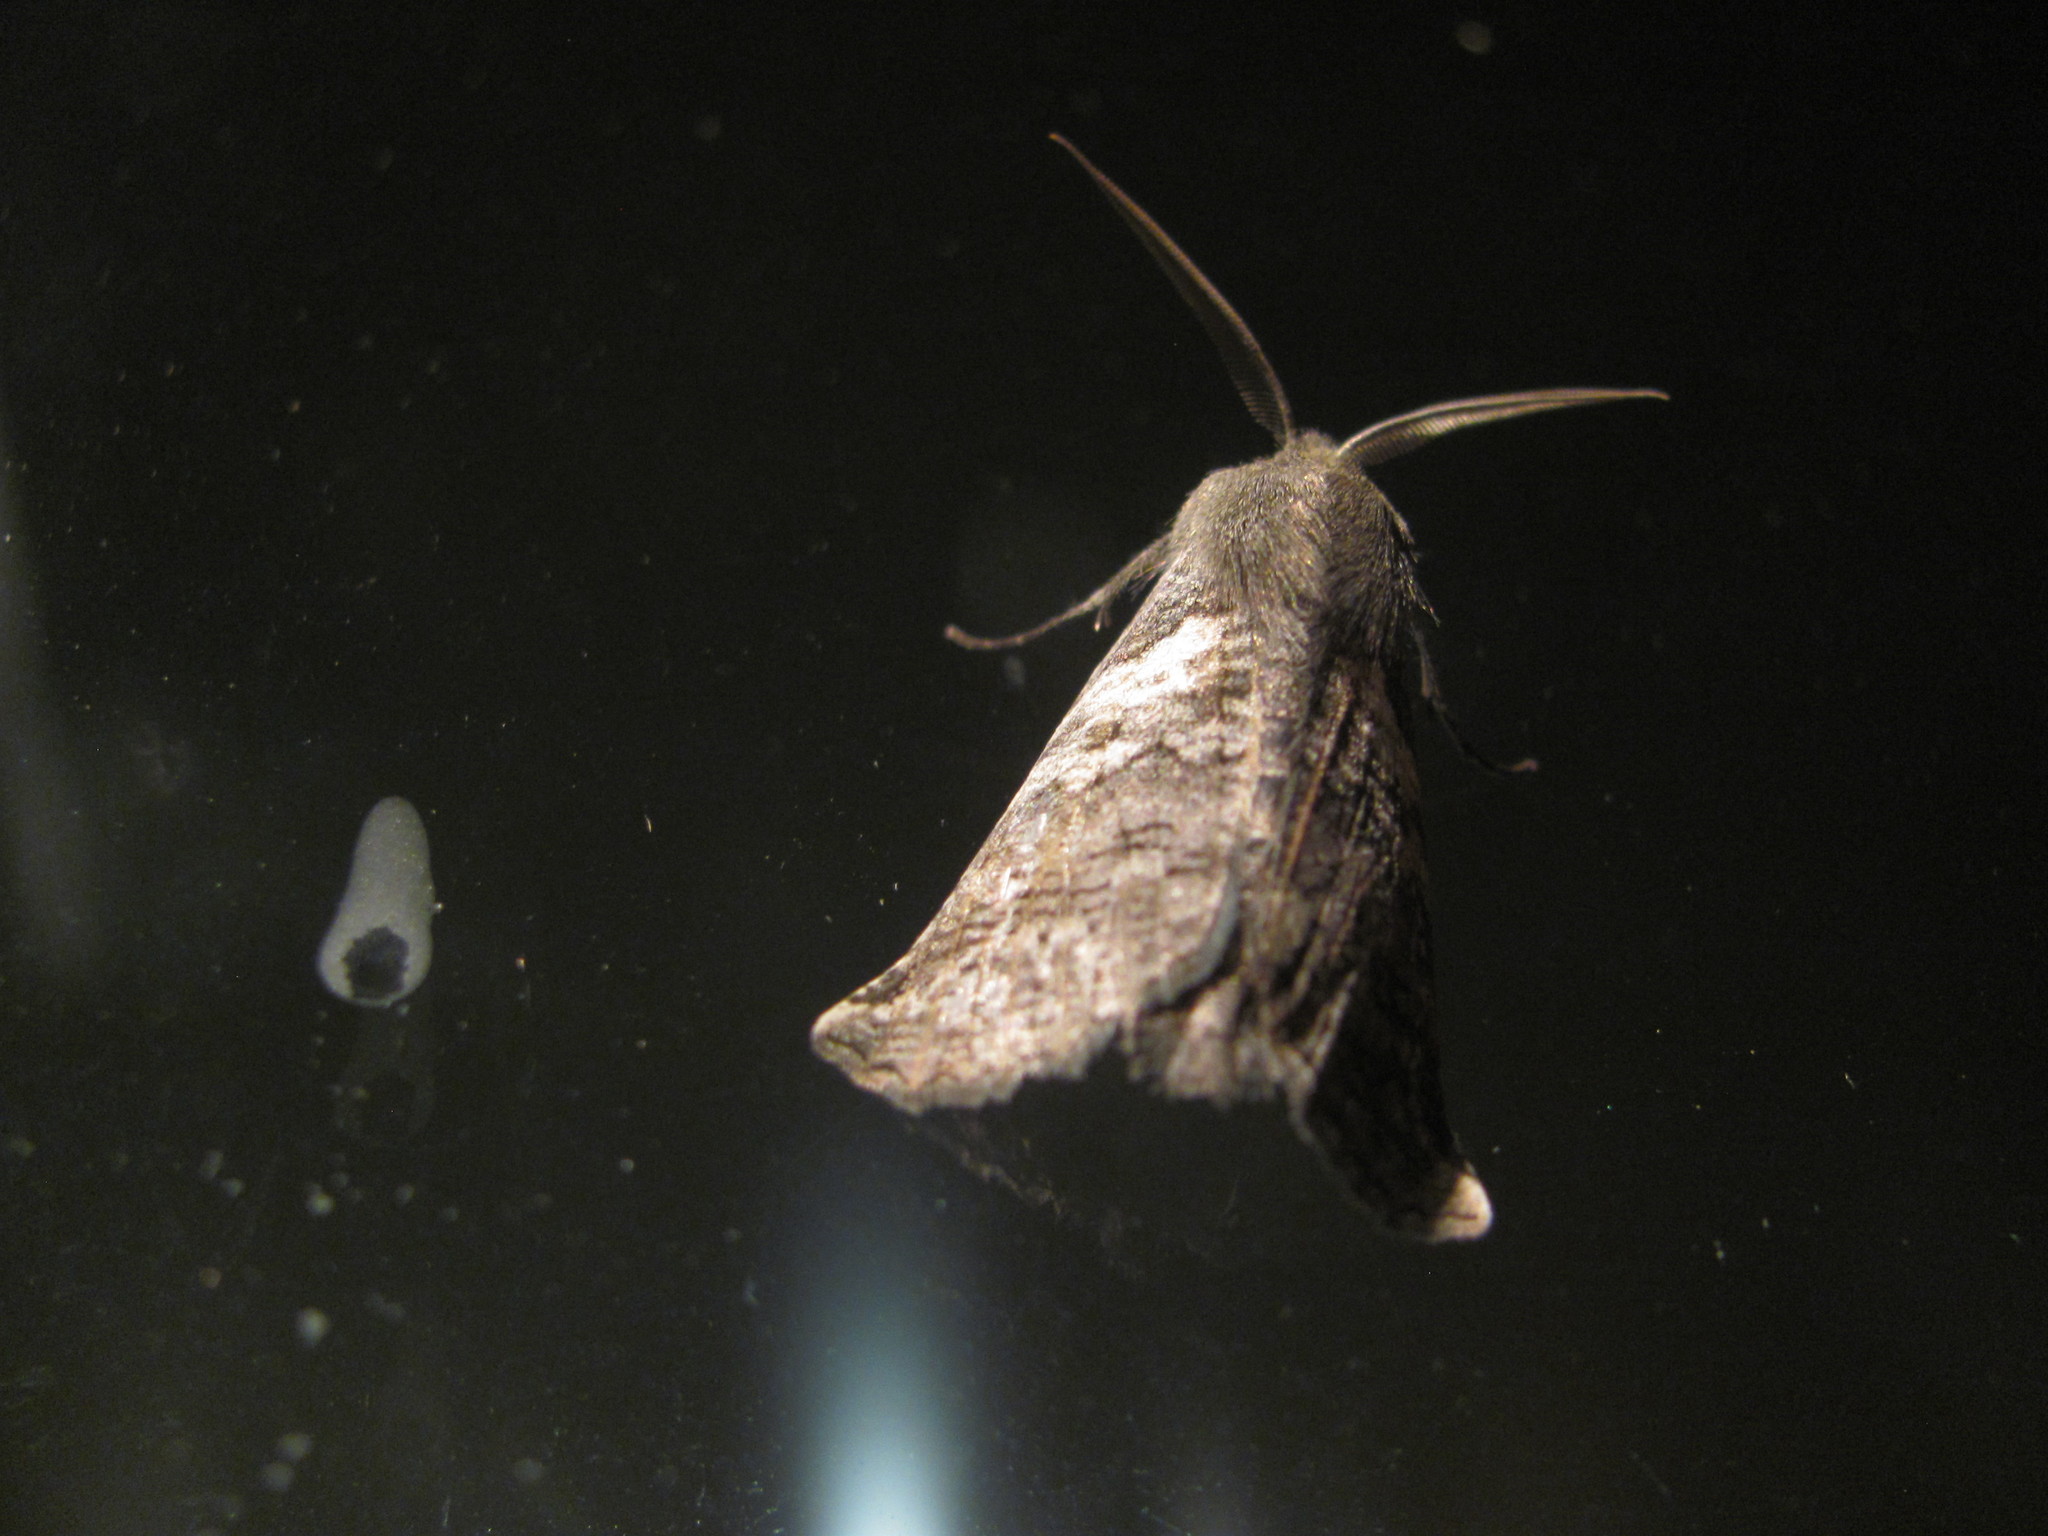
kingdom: Animalia
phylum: Arthropoda
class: Insecta
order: Lepidoptera
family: Geometridae
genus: Declana
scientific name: Declana
